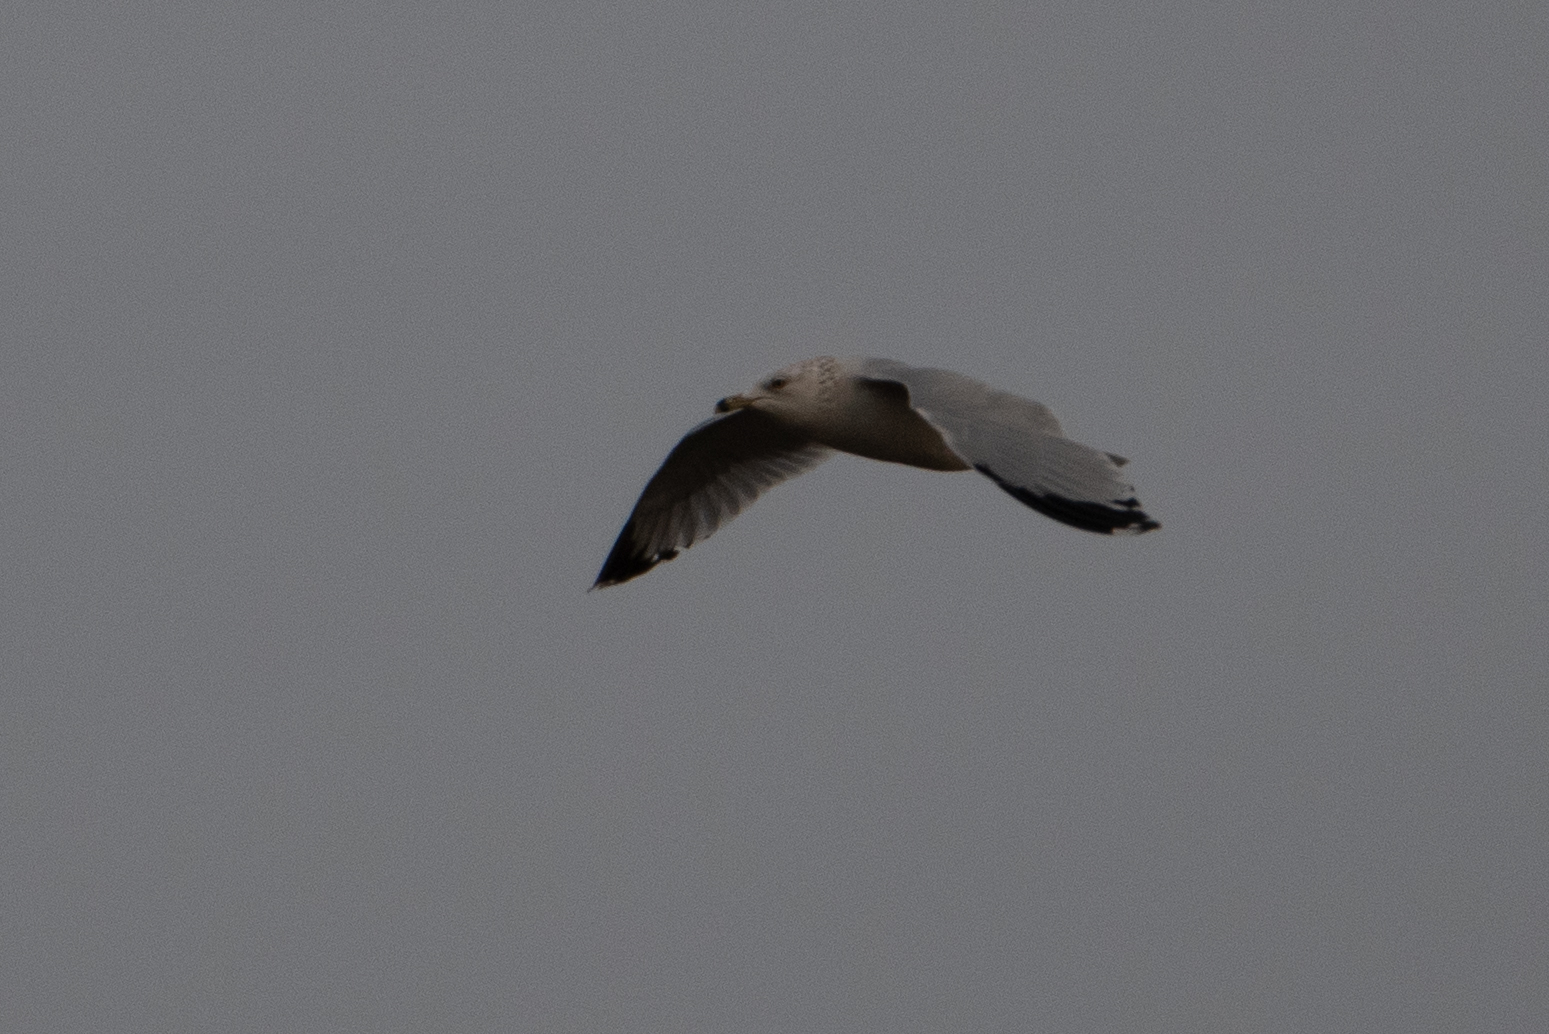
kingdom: Animalia
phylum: Chordata
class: Aves
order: Charadriiformes
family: Laridae
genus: Larus
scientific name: Larus delawarensis
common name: Ring-billed gull
